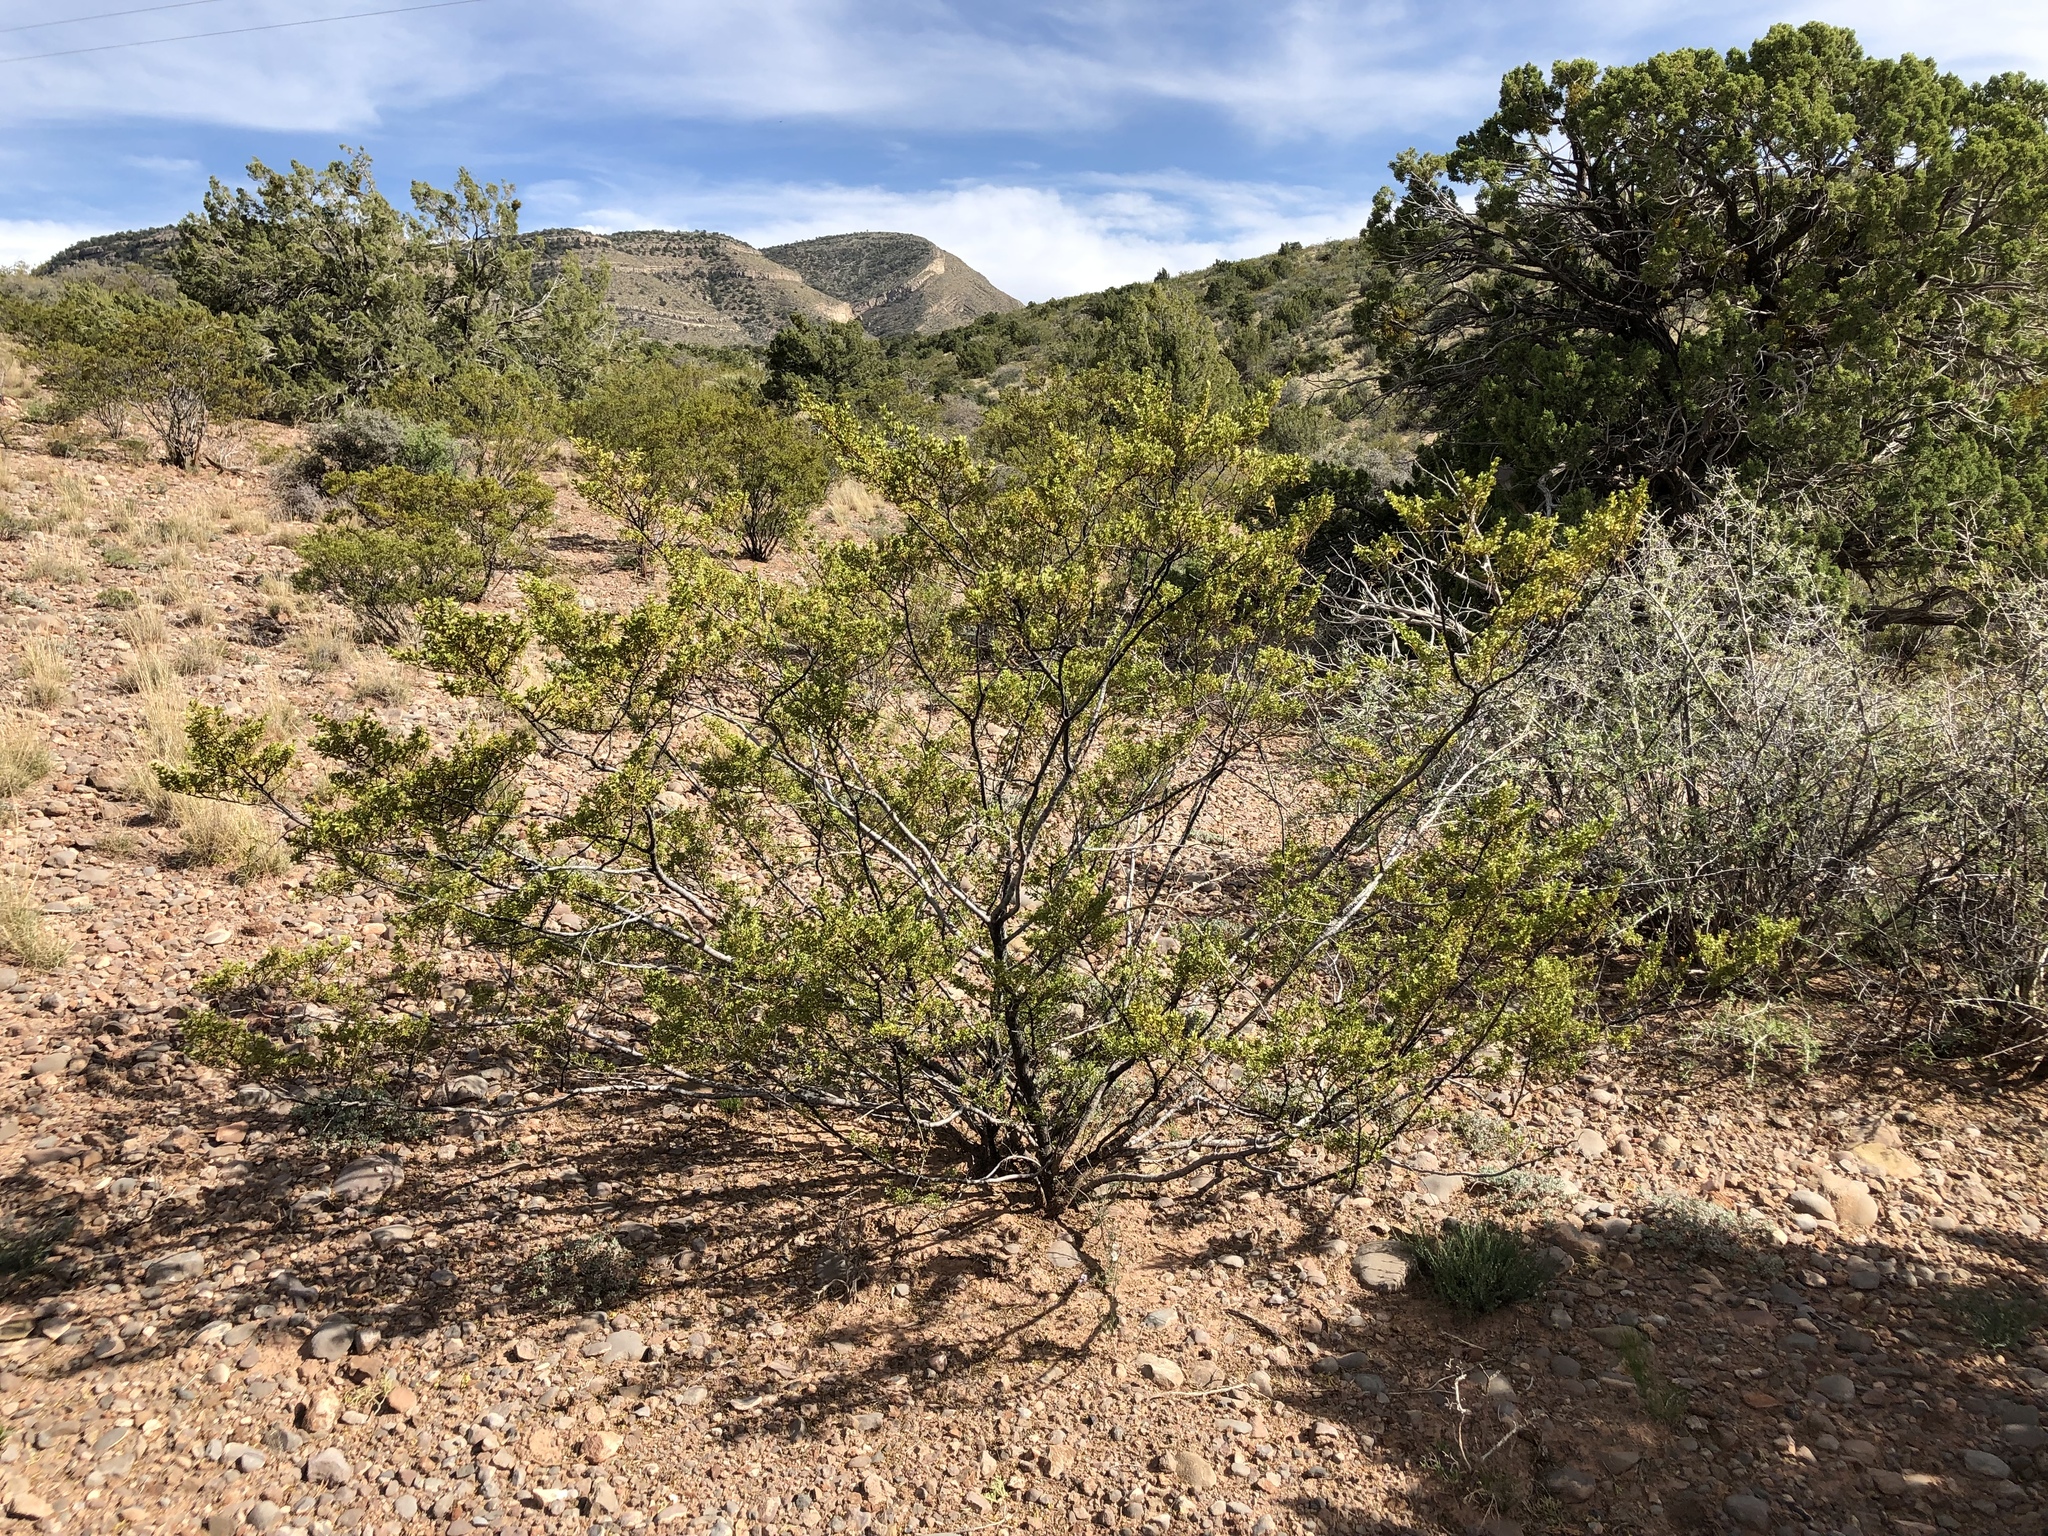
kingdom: Plantae
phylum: Tracheophyta
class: Magnoliopsida
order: Zygophyllales
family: Zygophyllaceae
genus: Larrea
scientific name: Larrea tridentata
